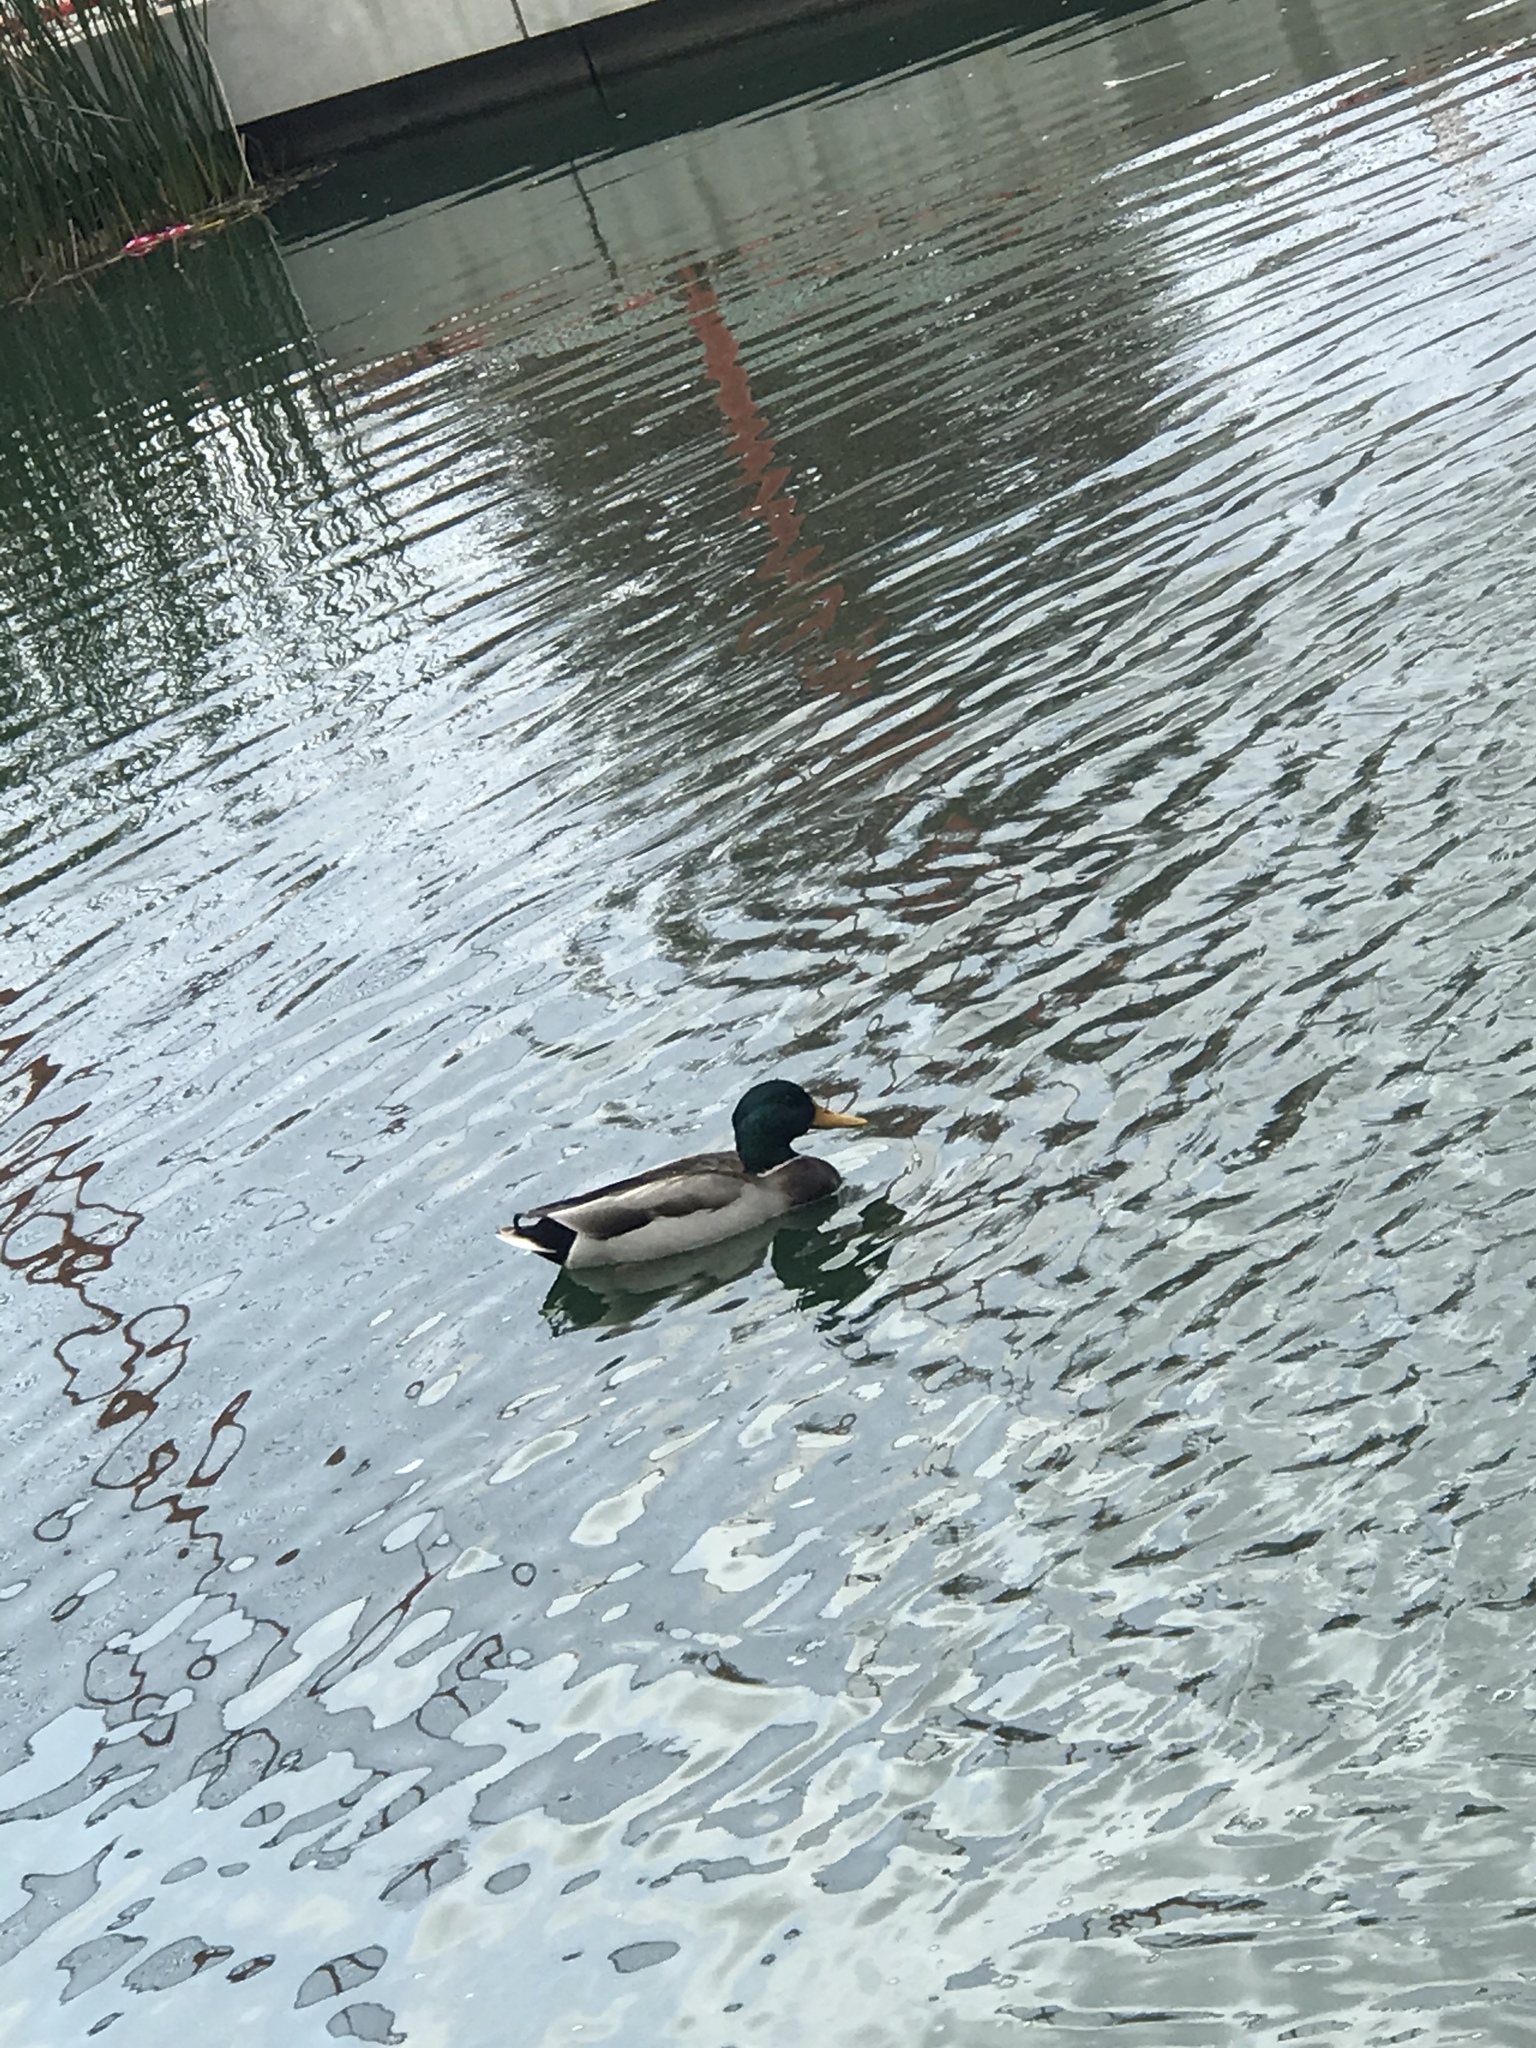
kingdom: Animalia
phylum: Chordata
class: Aves
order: Anseriformes
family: Anatidae
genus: Anas
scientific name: Anas platyrhynchos
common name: Mallard
